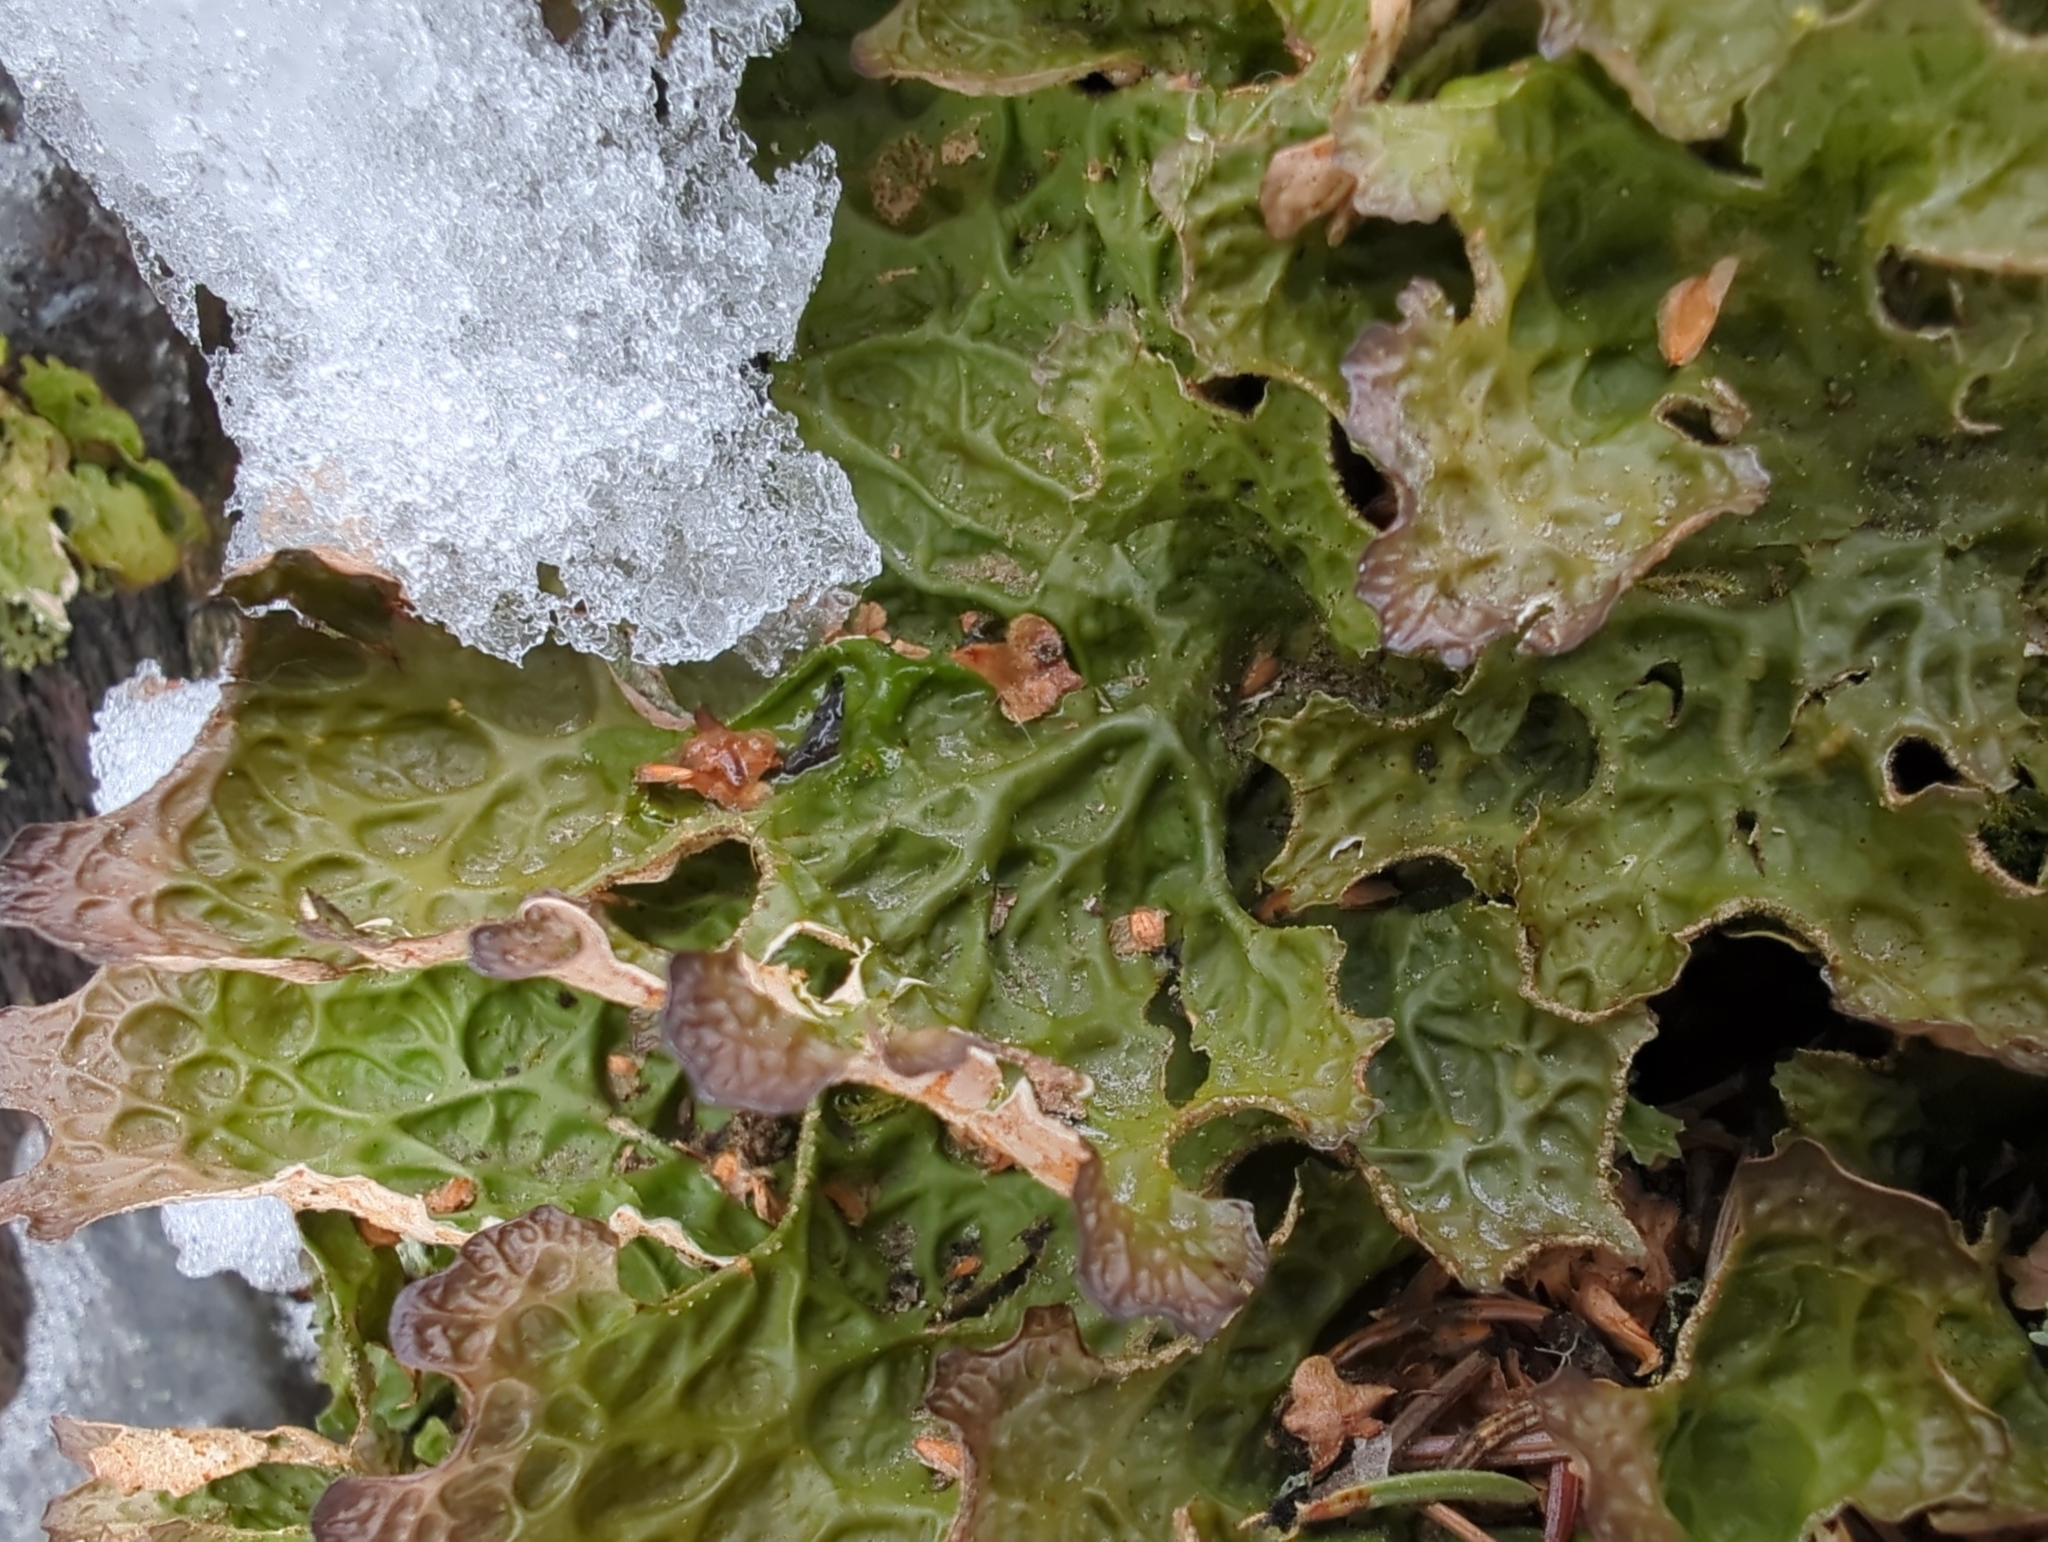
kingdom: Fungi
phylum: Ascomycota
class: Lecanoromycetes
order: Peltigerales
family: Lobariaceae
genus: Lobaria
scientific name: Lobaria pulmonaria
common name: Lungwort
